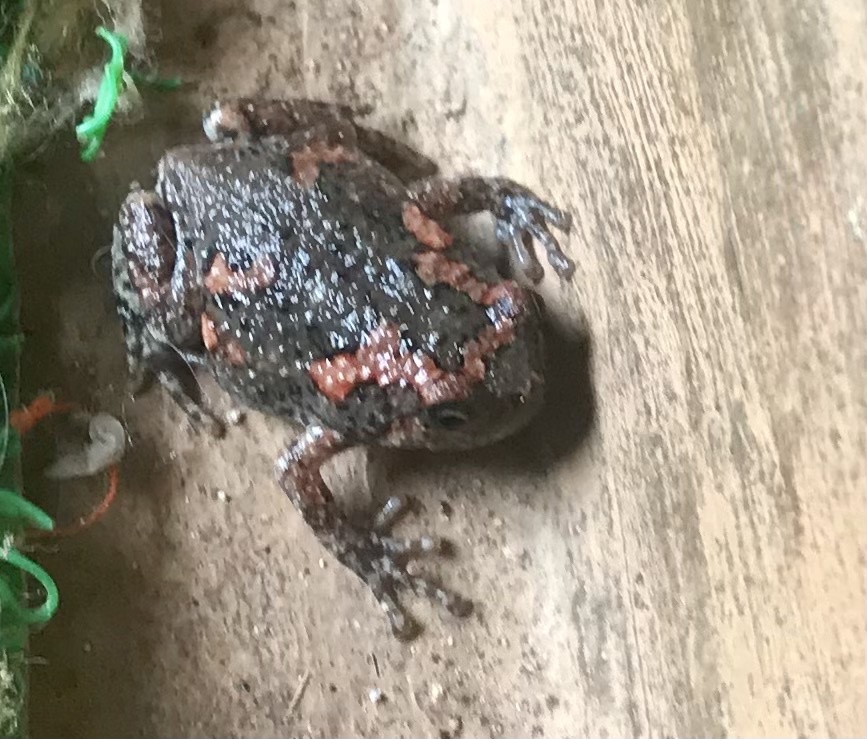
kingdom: Animalia
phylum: Chordata
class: Amphibia
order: Anura
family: Microhylidae
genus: Uperodon
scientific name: Uperodon taprobanicus
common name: Ceylon kaloula
